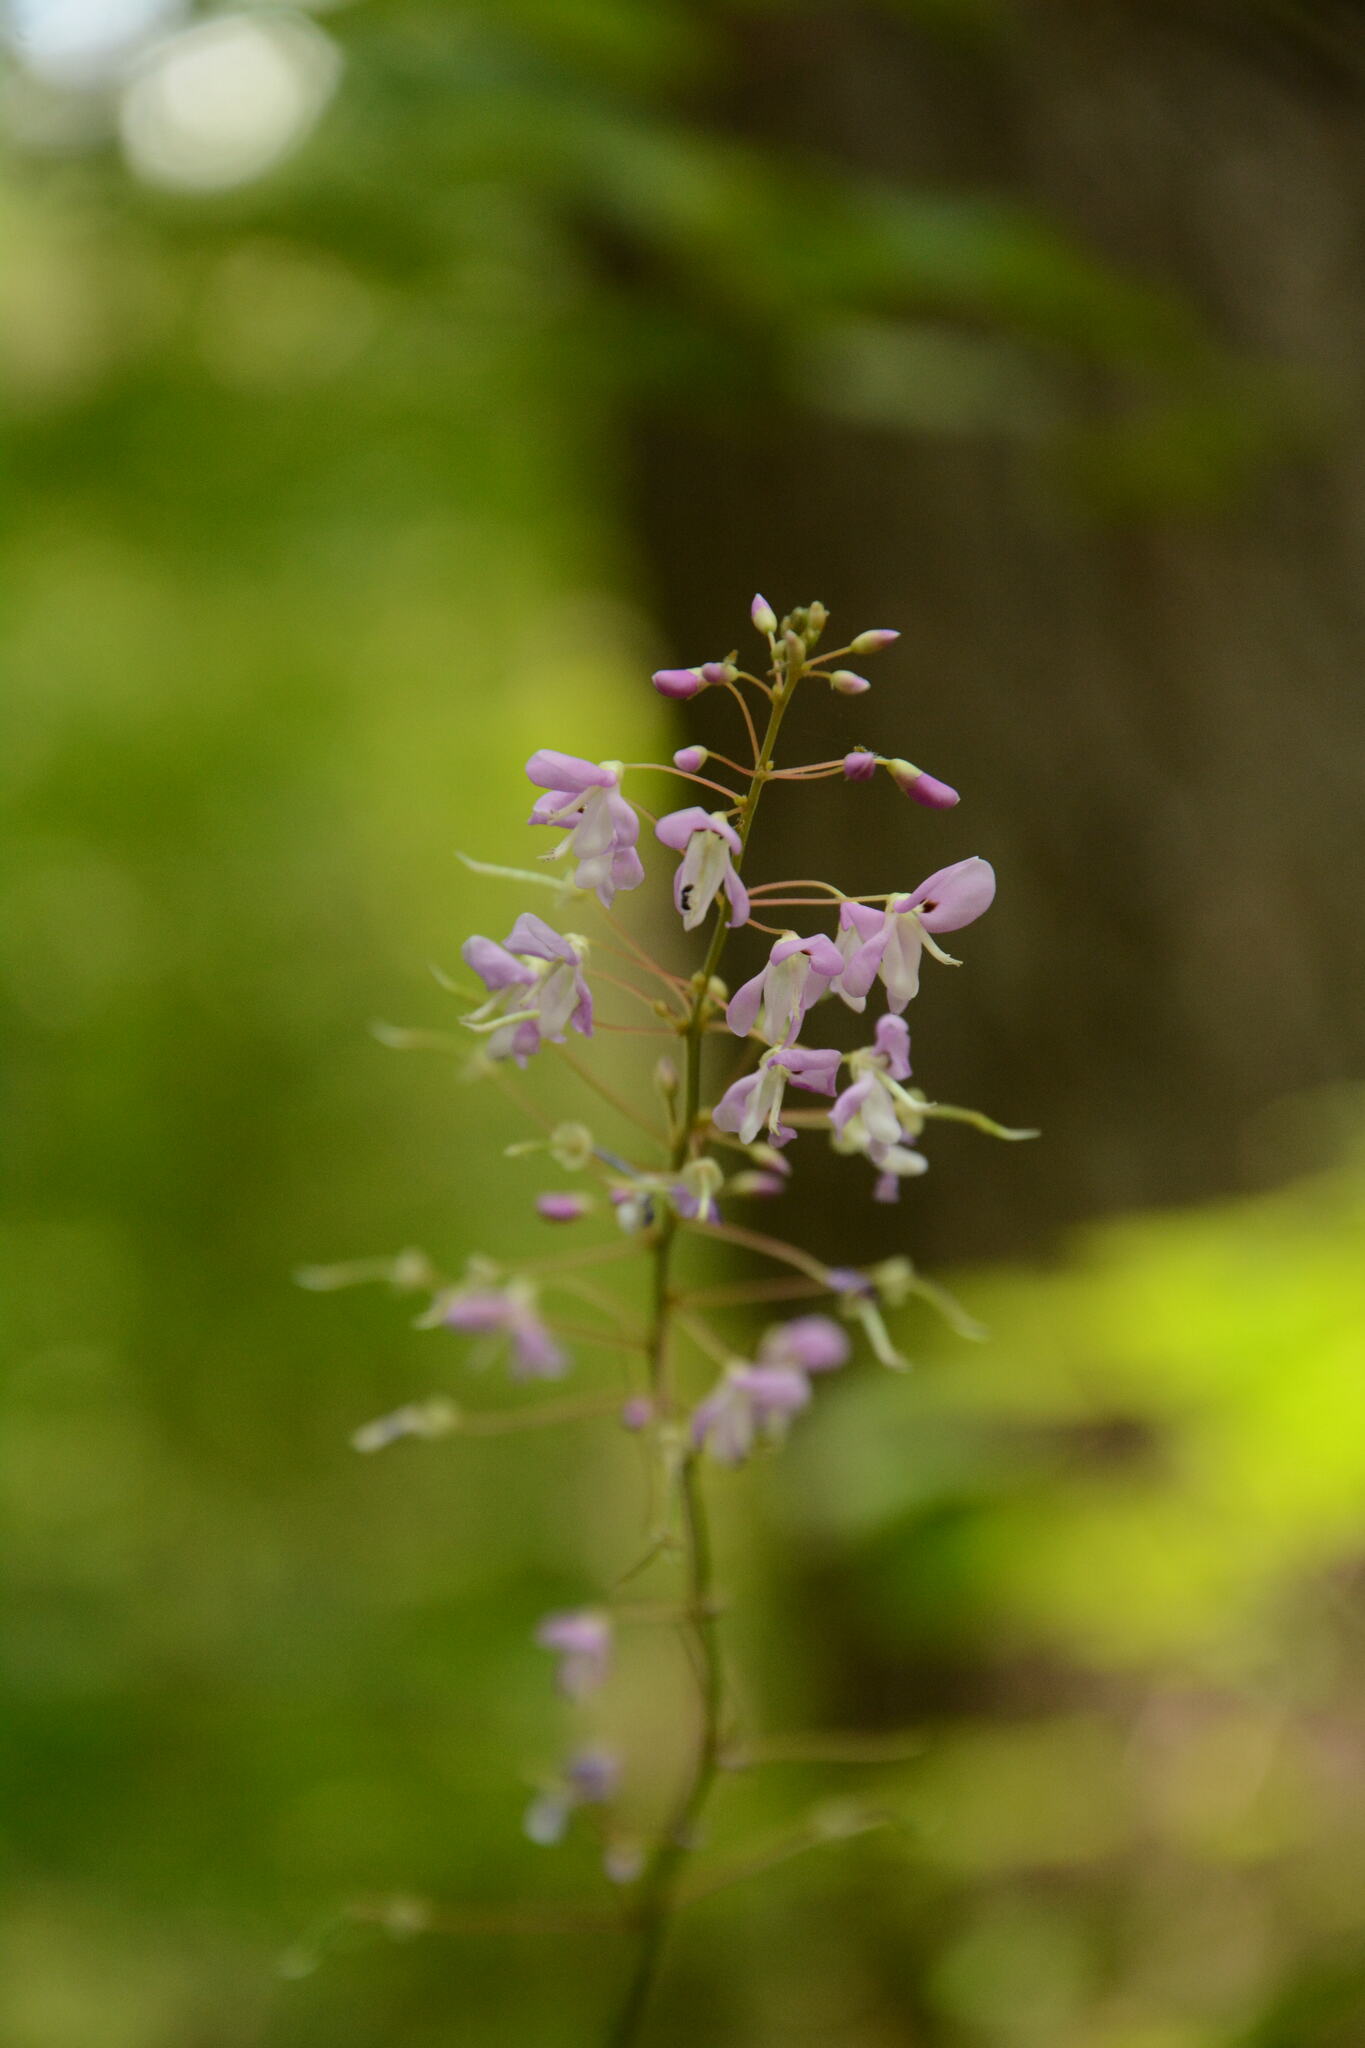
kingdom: Plantae
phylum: Tracheophyta
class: Magnoliopsida
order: Fabales
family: Fabaceae
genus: Hylodesmum
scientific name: Hylodesmum nudiflorum
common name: Bare-stemmed tick-trefoil
